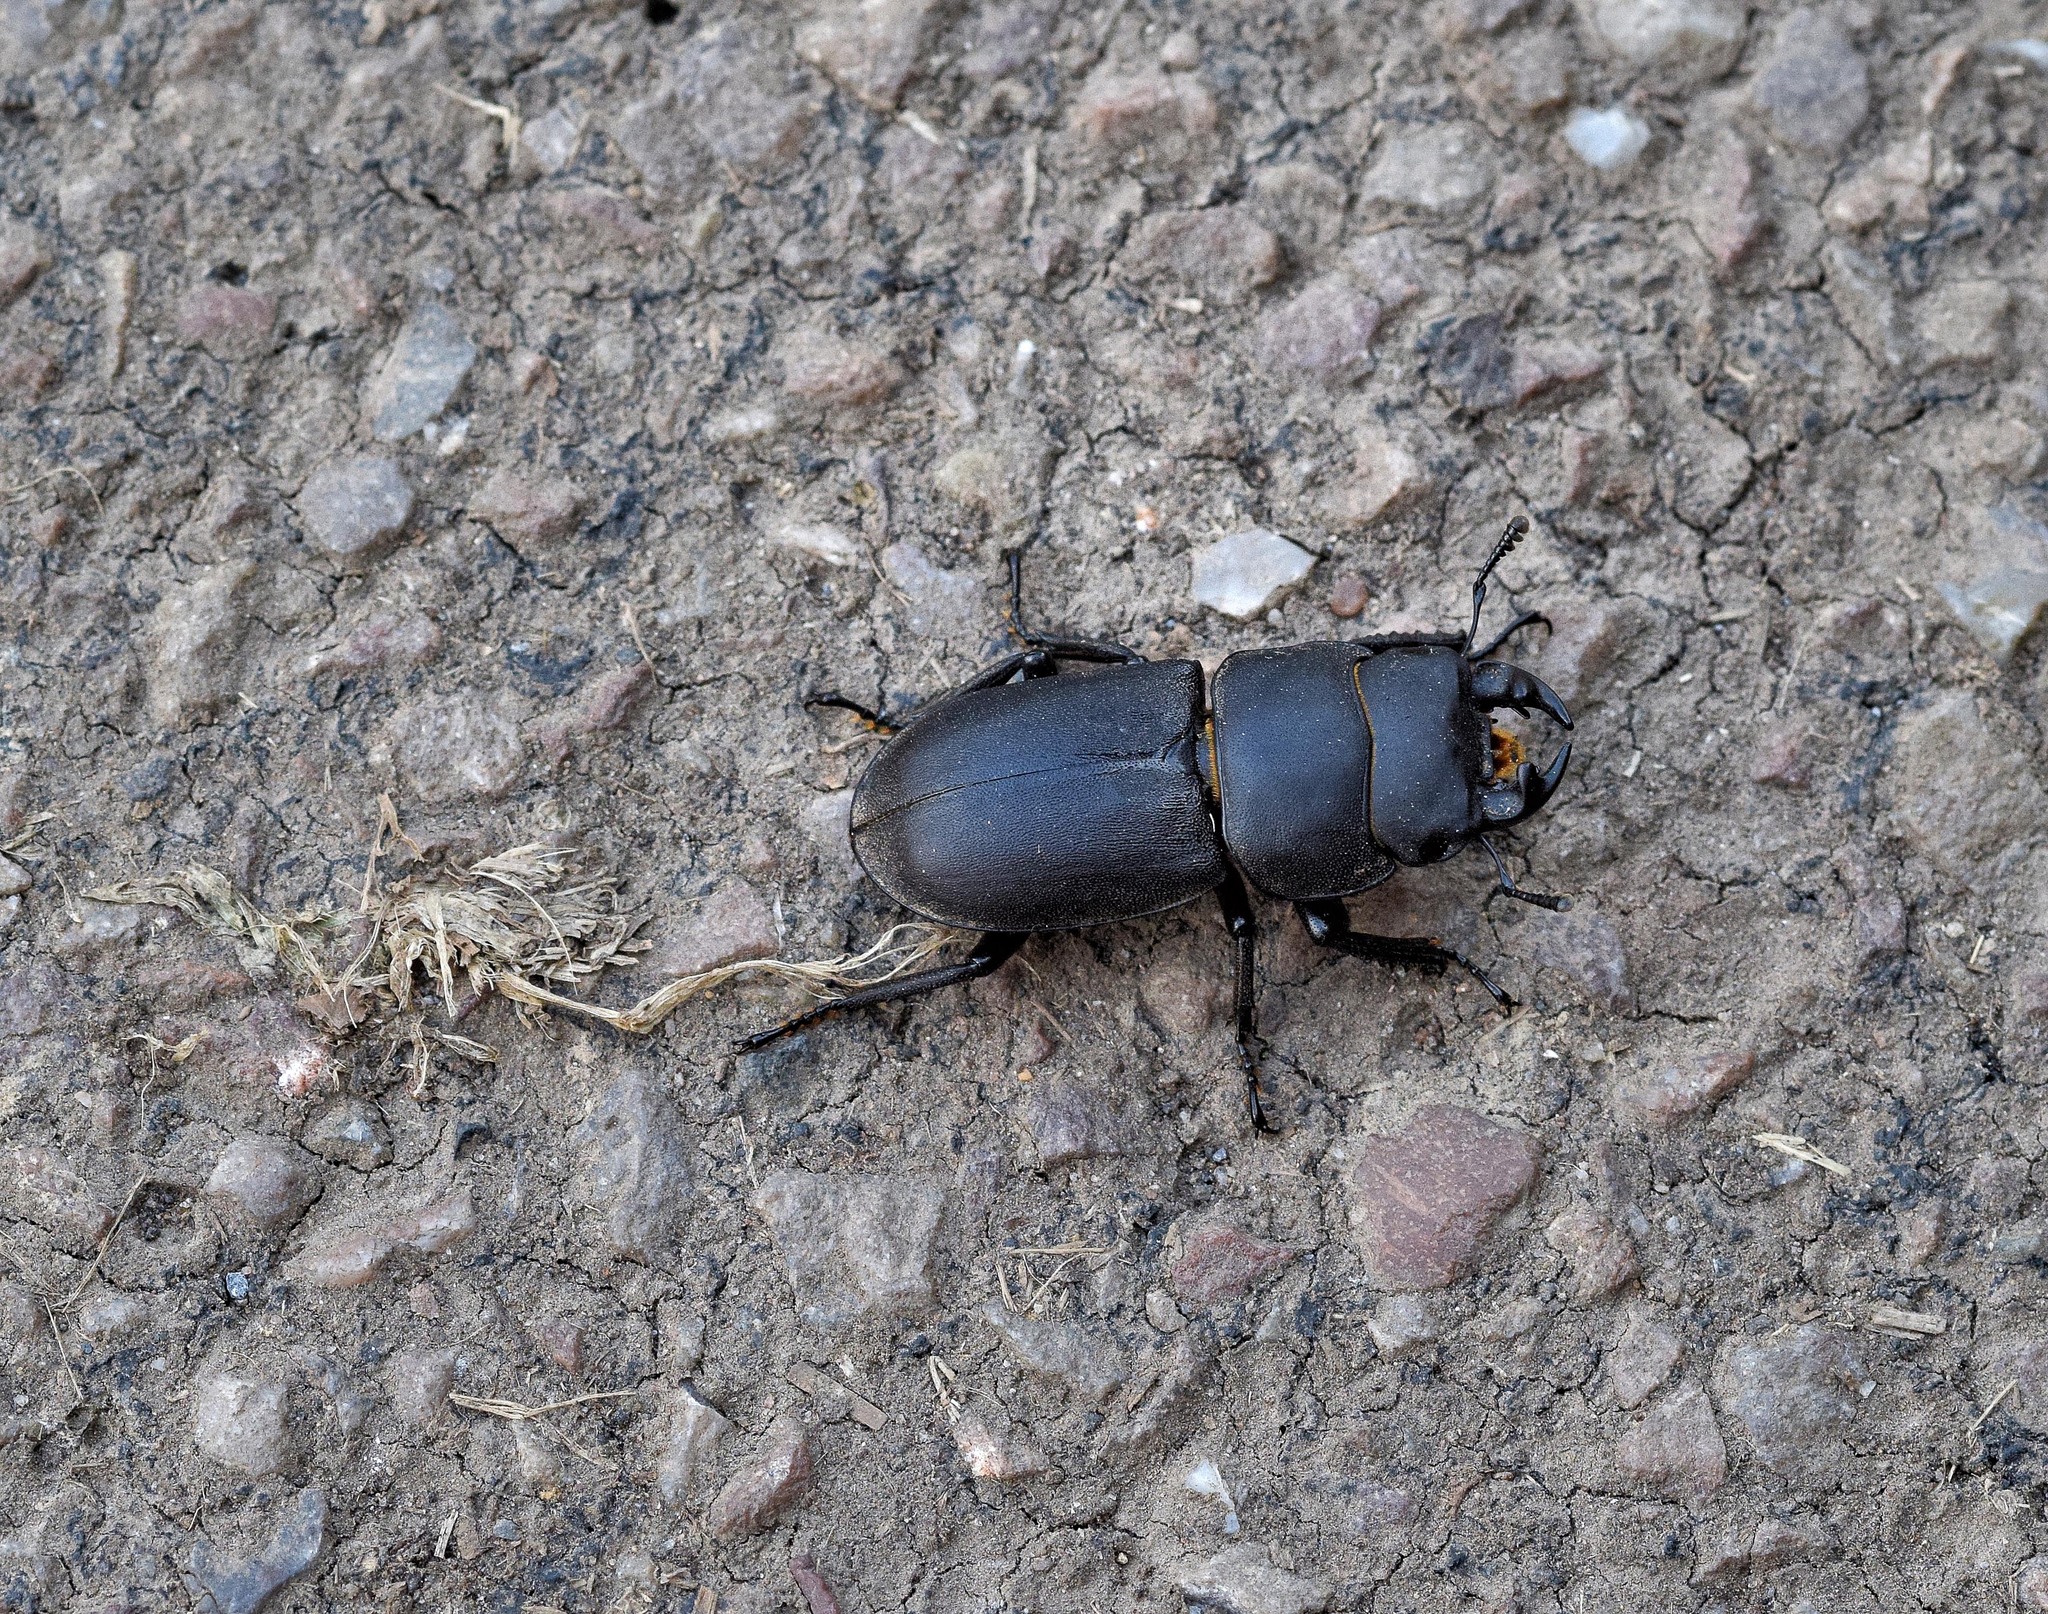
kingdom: Animalia
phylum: Arthropoda
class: Insecta
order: Coleoptera
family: Lucanidae
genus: Dorcus
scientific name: Dorcus parallelipipedus
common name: Lesser stag beetle
